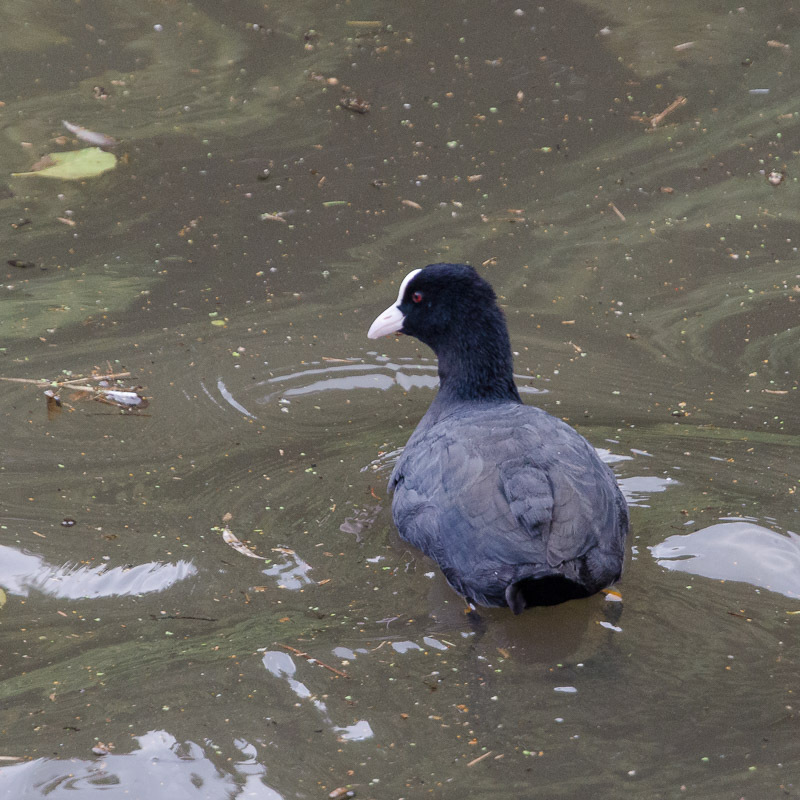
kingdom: Animalia
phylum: Chordata
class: Aves
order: Gruiformes
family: Rallidae
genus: Fulica
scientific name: Fulica atra
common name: Eurasian coot
